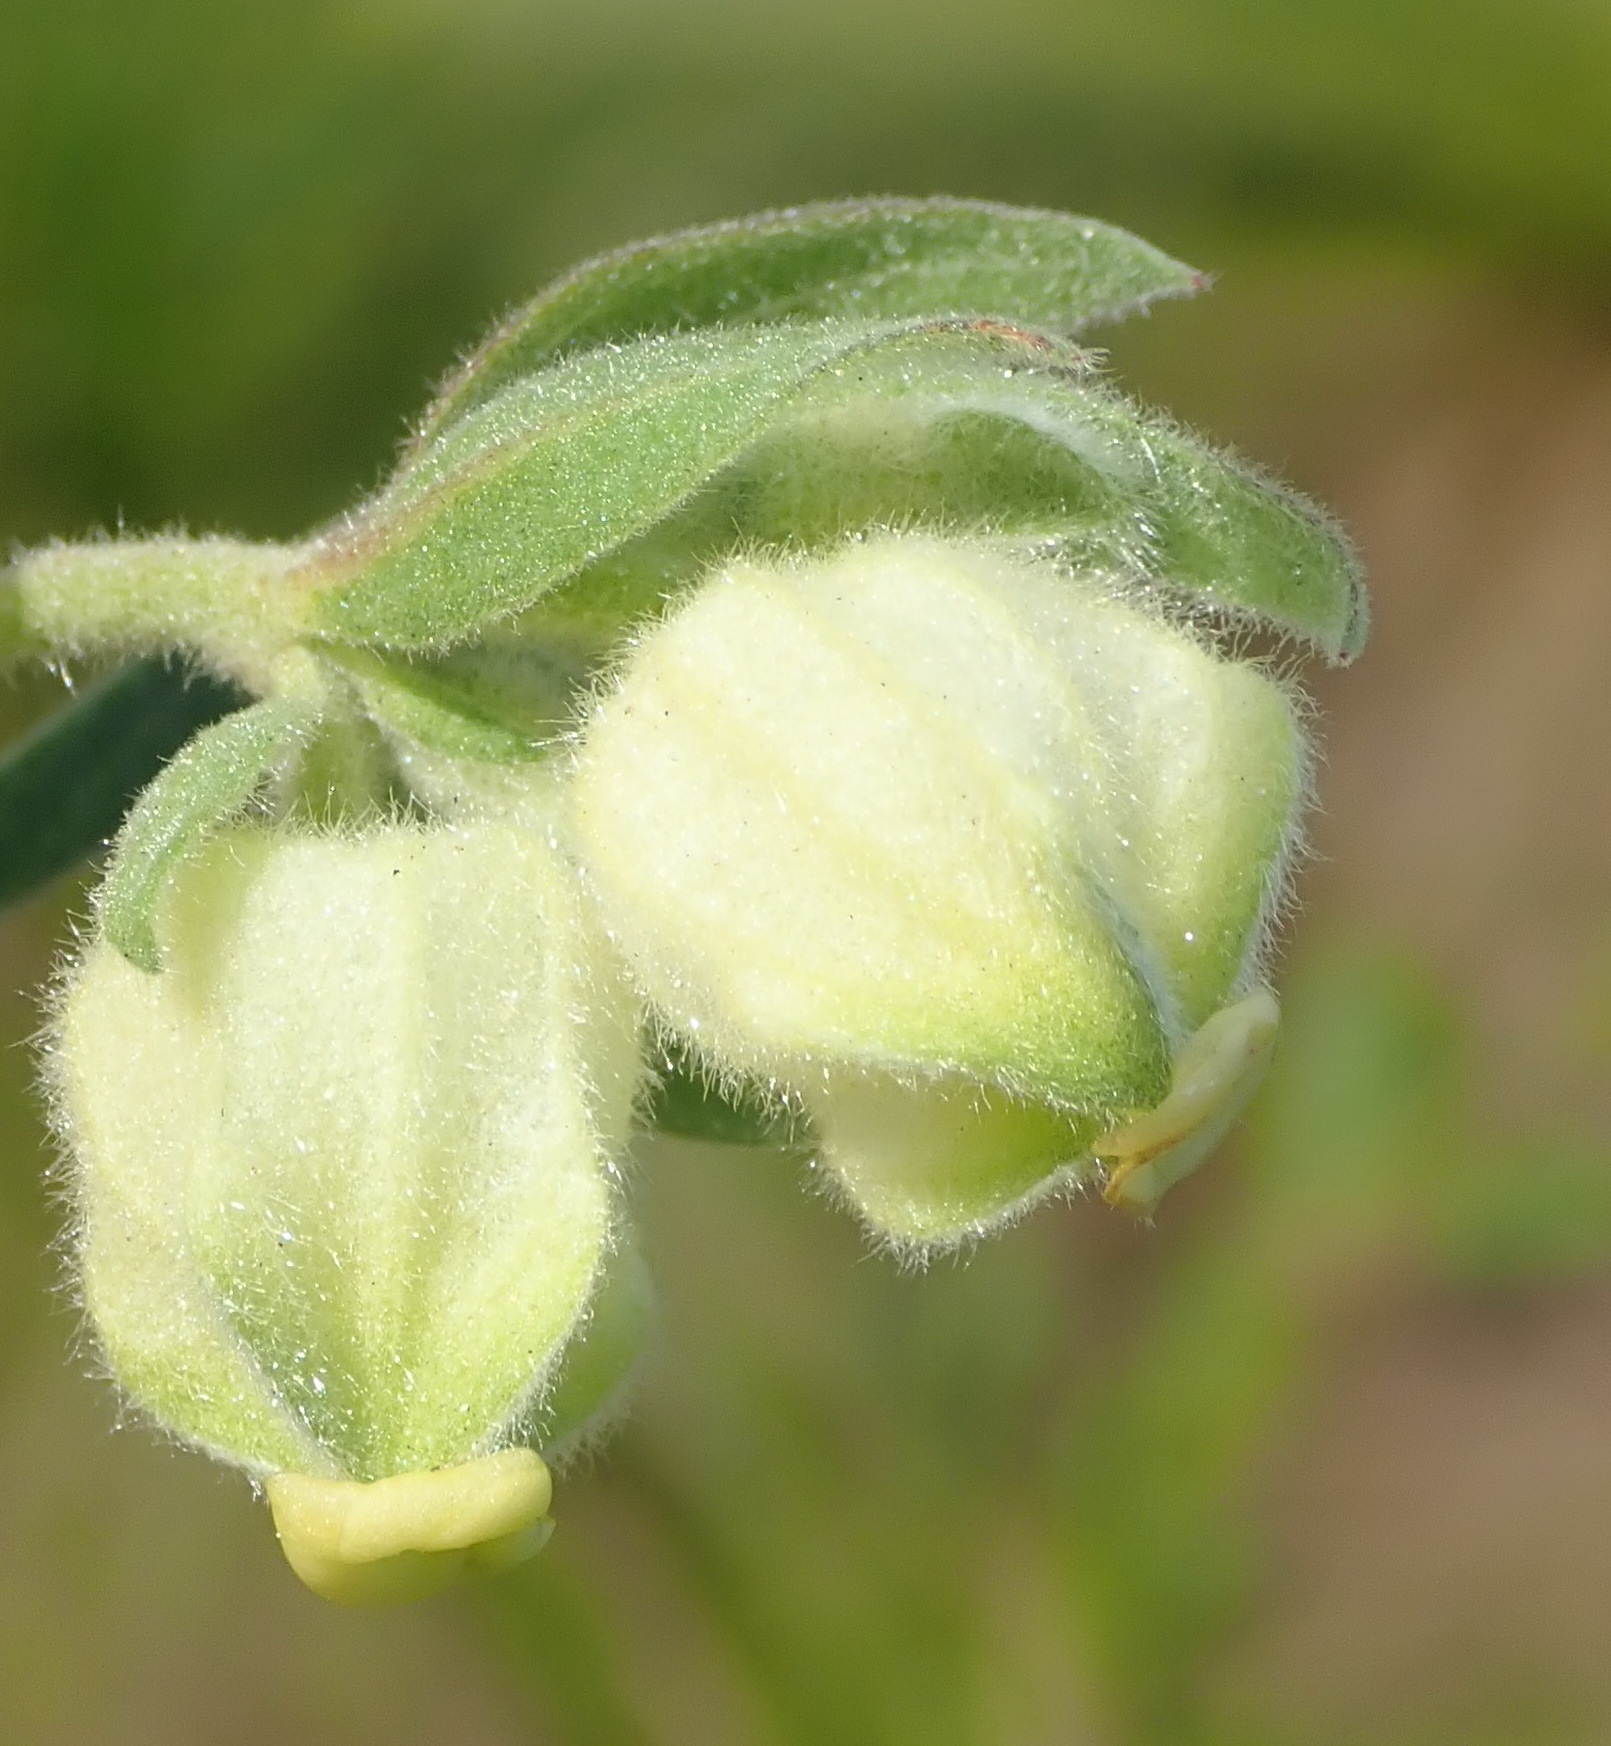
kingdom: Plantae
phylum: Tracheophyta
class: Magnoliopsida
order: Malvales
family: Malvaceae
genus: Hermannia
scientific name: Hermannia hyssopifolia
